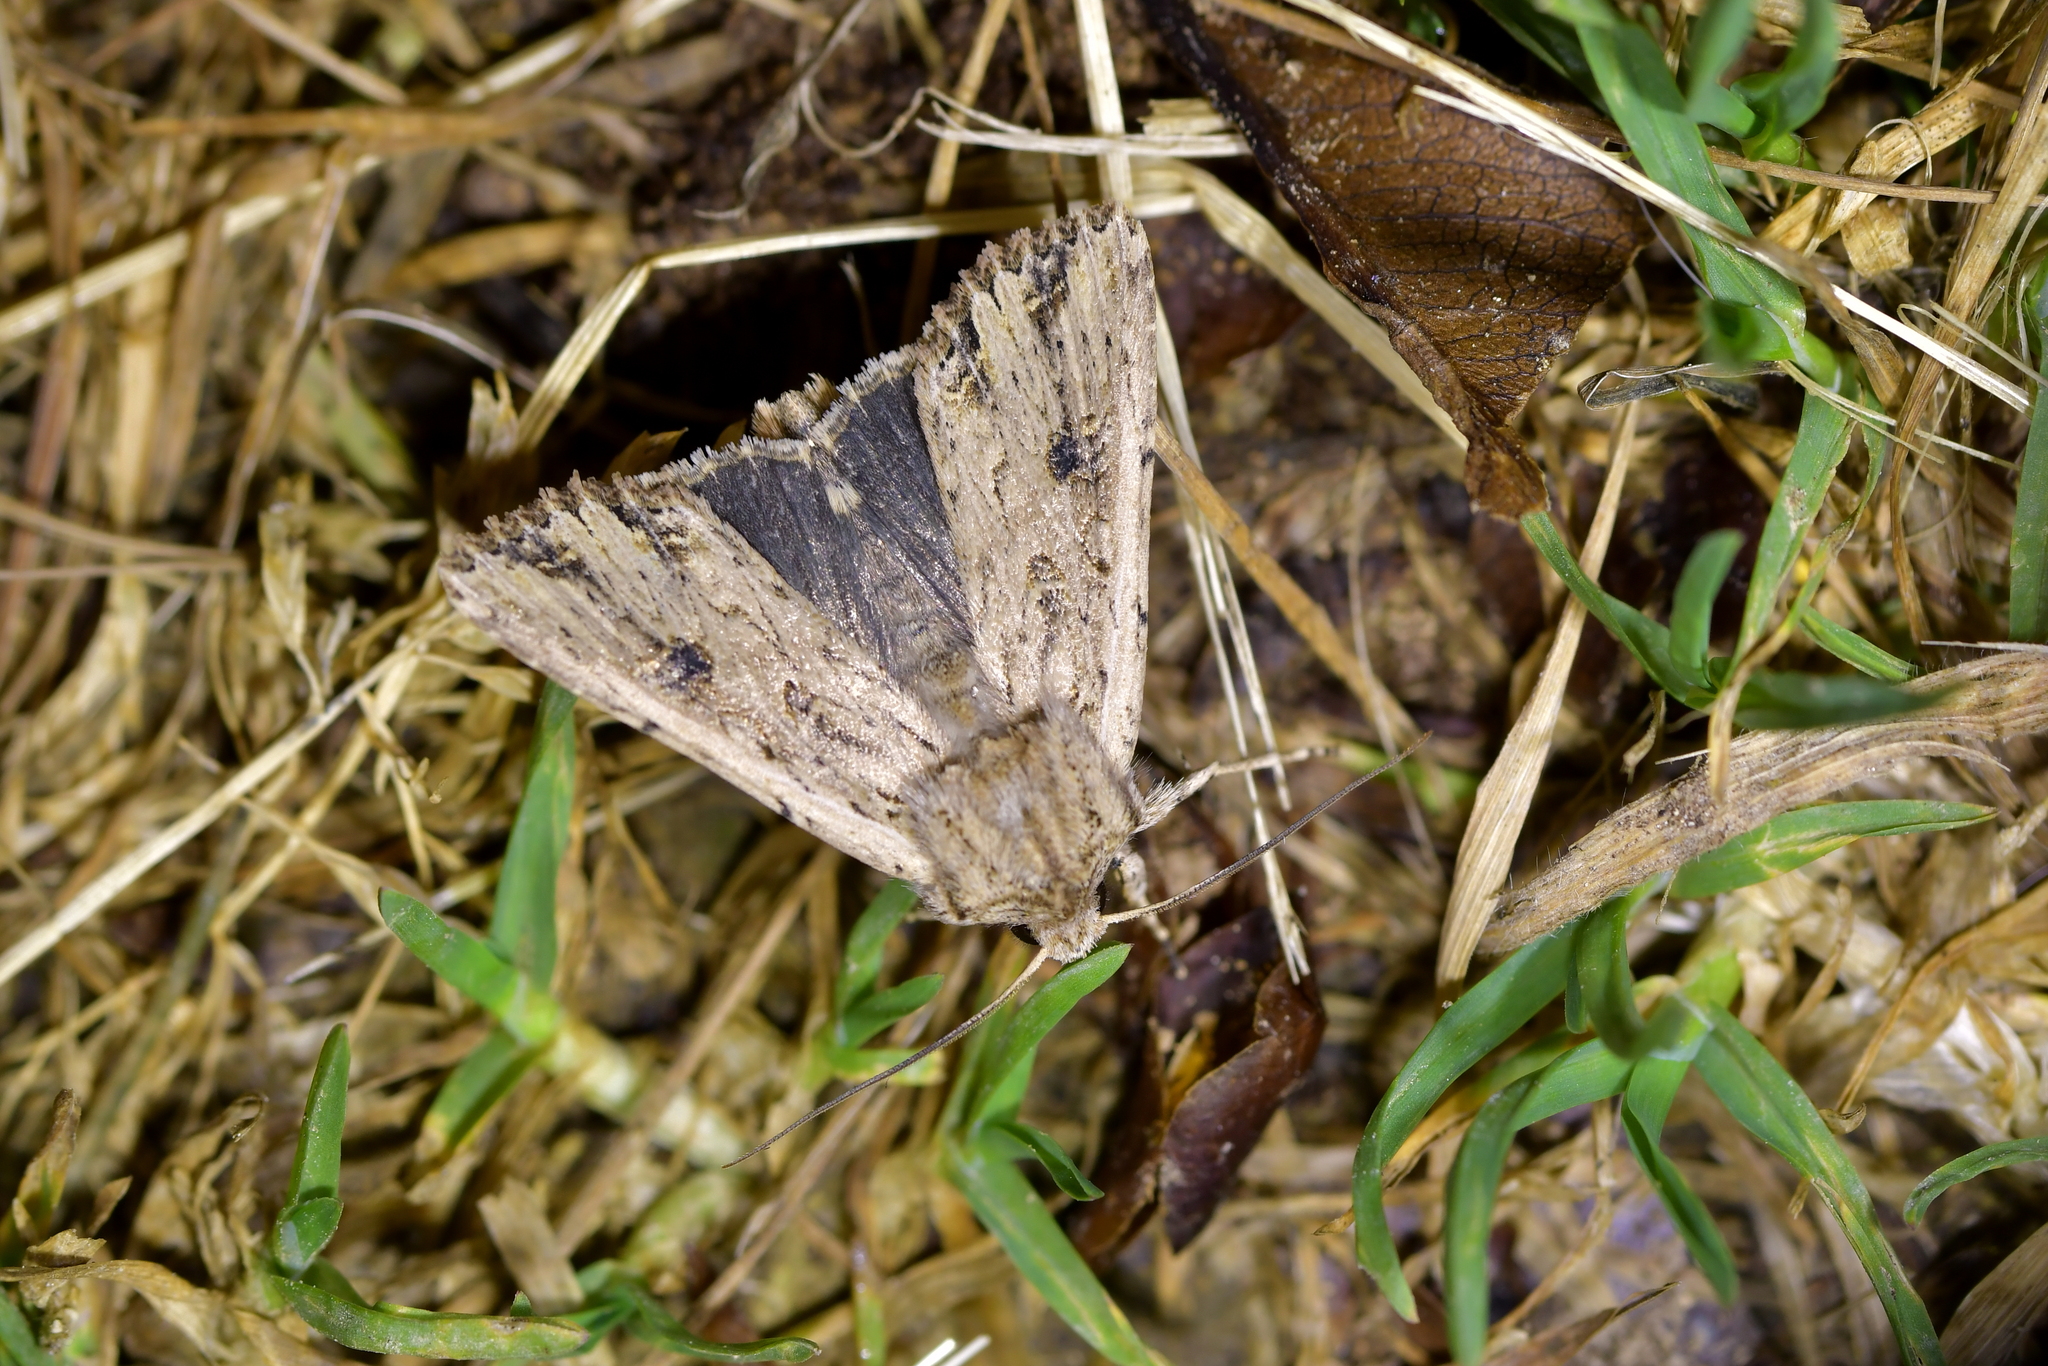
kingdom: Animalia
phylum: Arthropoda
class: Insecta
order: Lepidoptera
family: Noctuidae
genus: Ichneutica
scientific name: Ichneutica lignana
